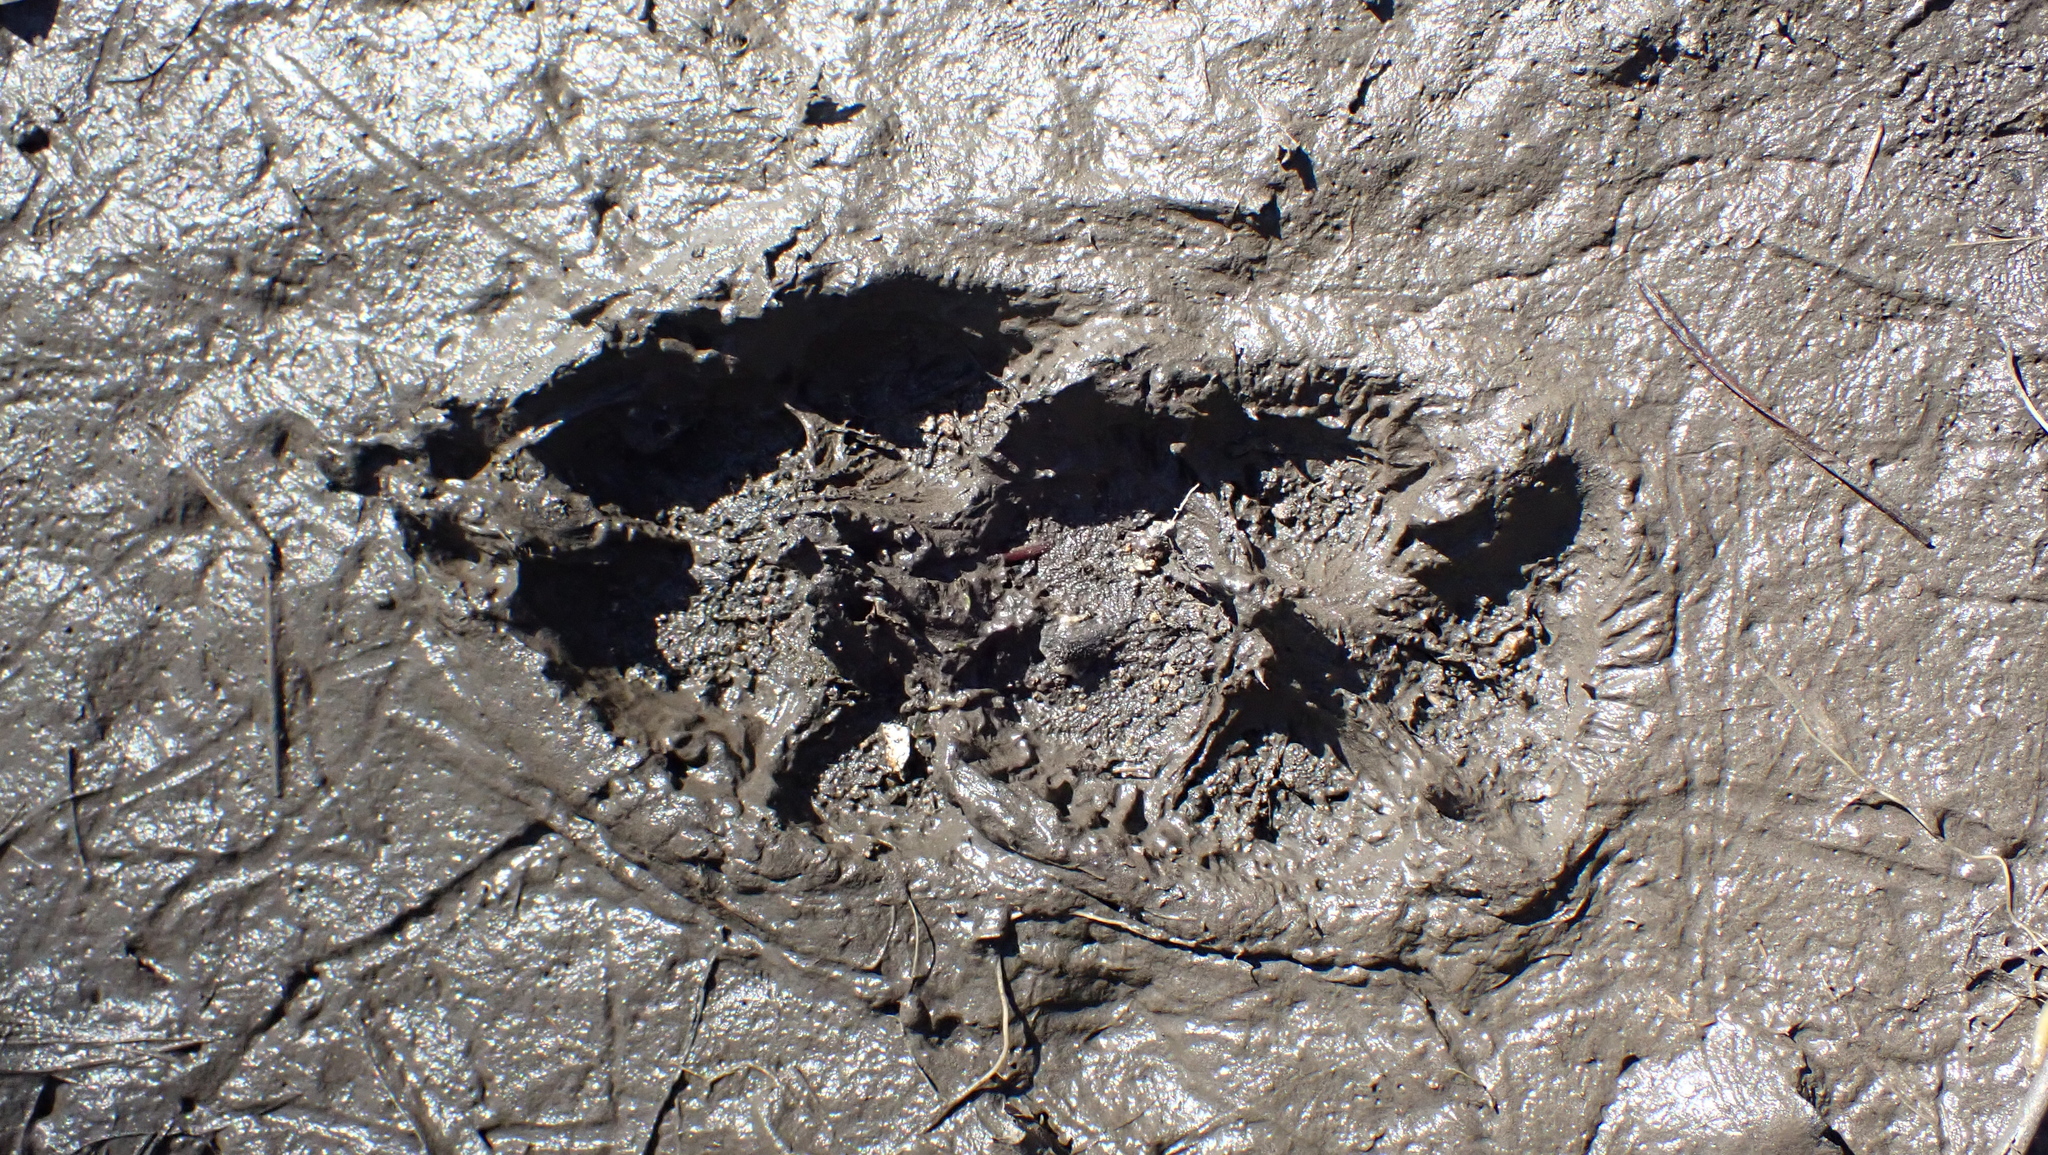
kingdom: Animalia
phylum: Chordata
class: Mammalia
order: Carnivora
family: Canidae
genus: Canis
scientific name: Canis latrans
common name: Coyote
